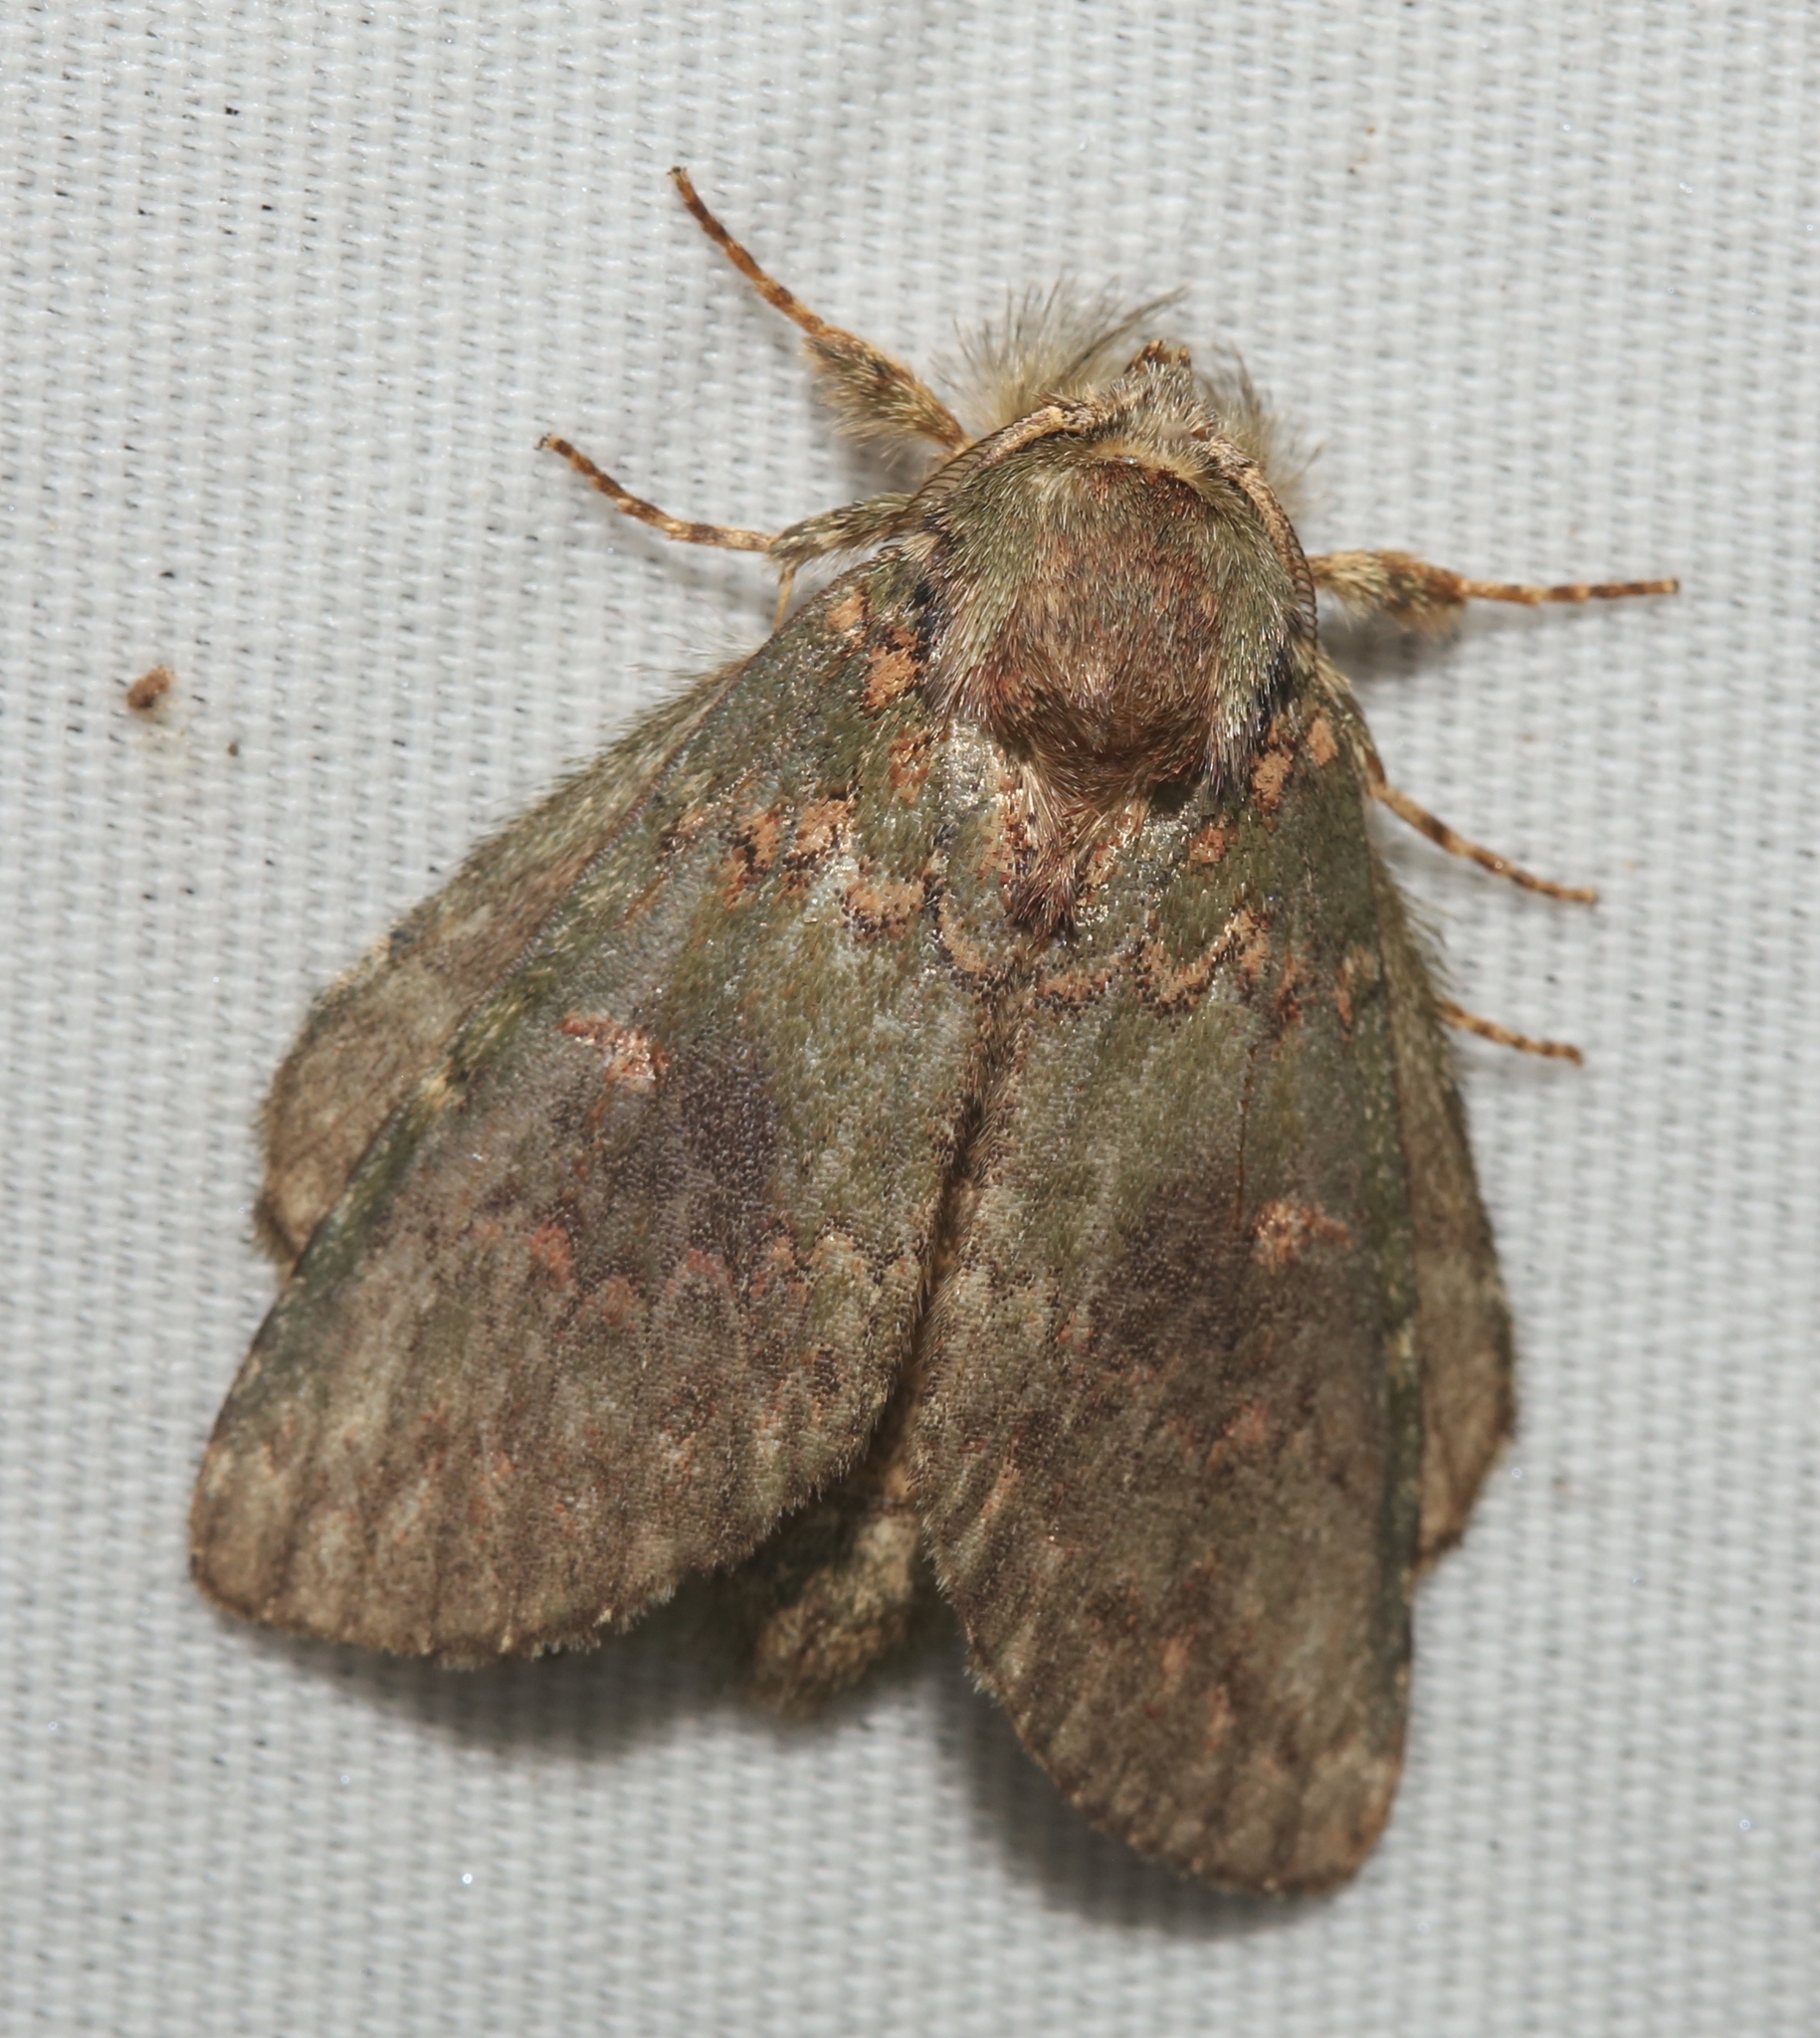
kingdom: Animalia
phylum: Arthropoda
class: Insecta
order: Lepidoptera
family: Notodontidae
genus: Disphragis
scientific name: Disphragis Cecrita biundata
